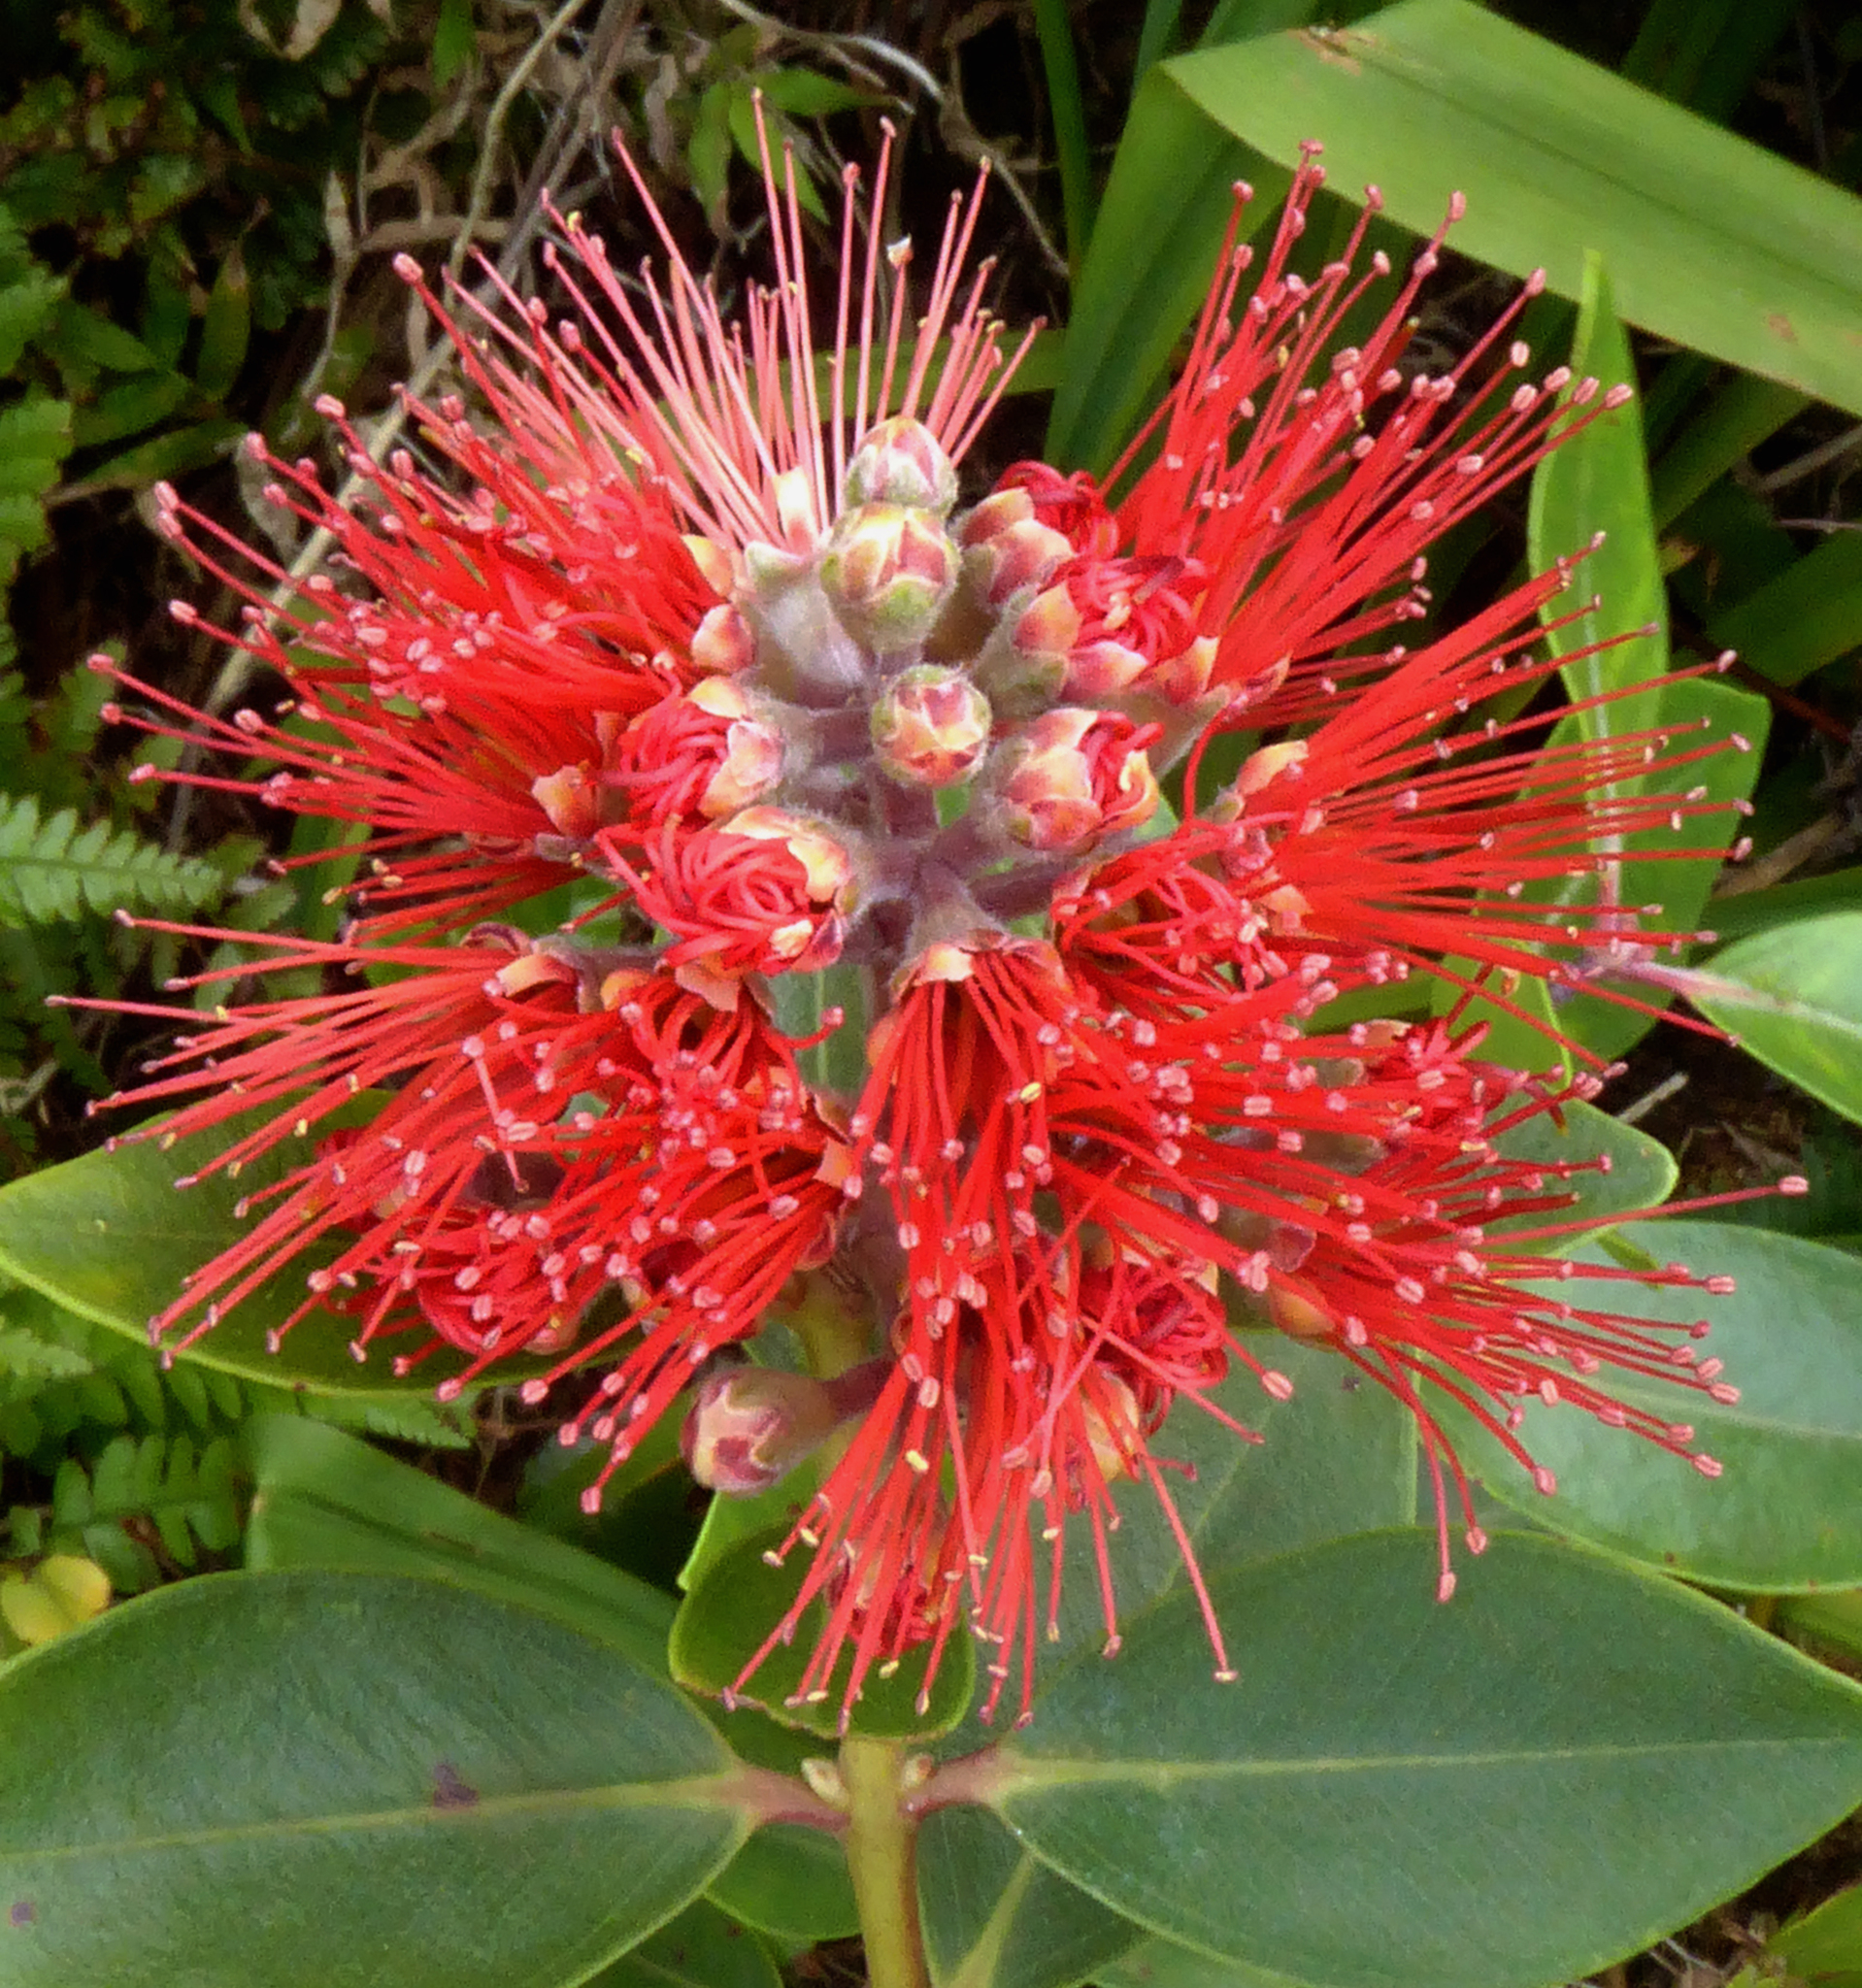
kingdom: Plantae
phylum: Tracheophyta
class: Magnoliopsida
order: Myrtales
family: Myrtaceae
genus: Metrosideros
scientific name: Metrosideros collina
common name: Vunga
